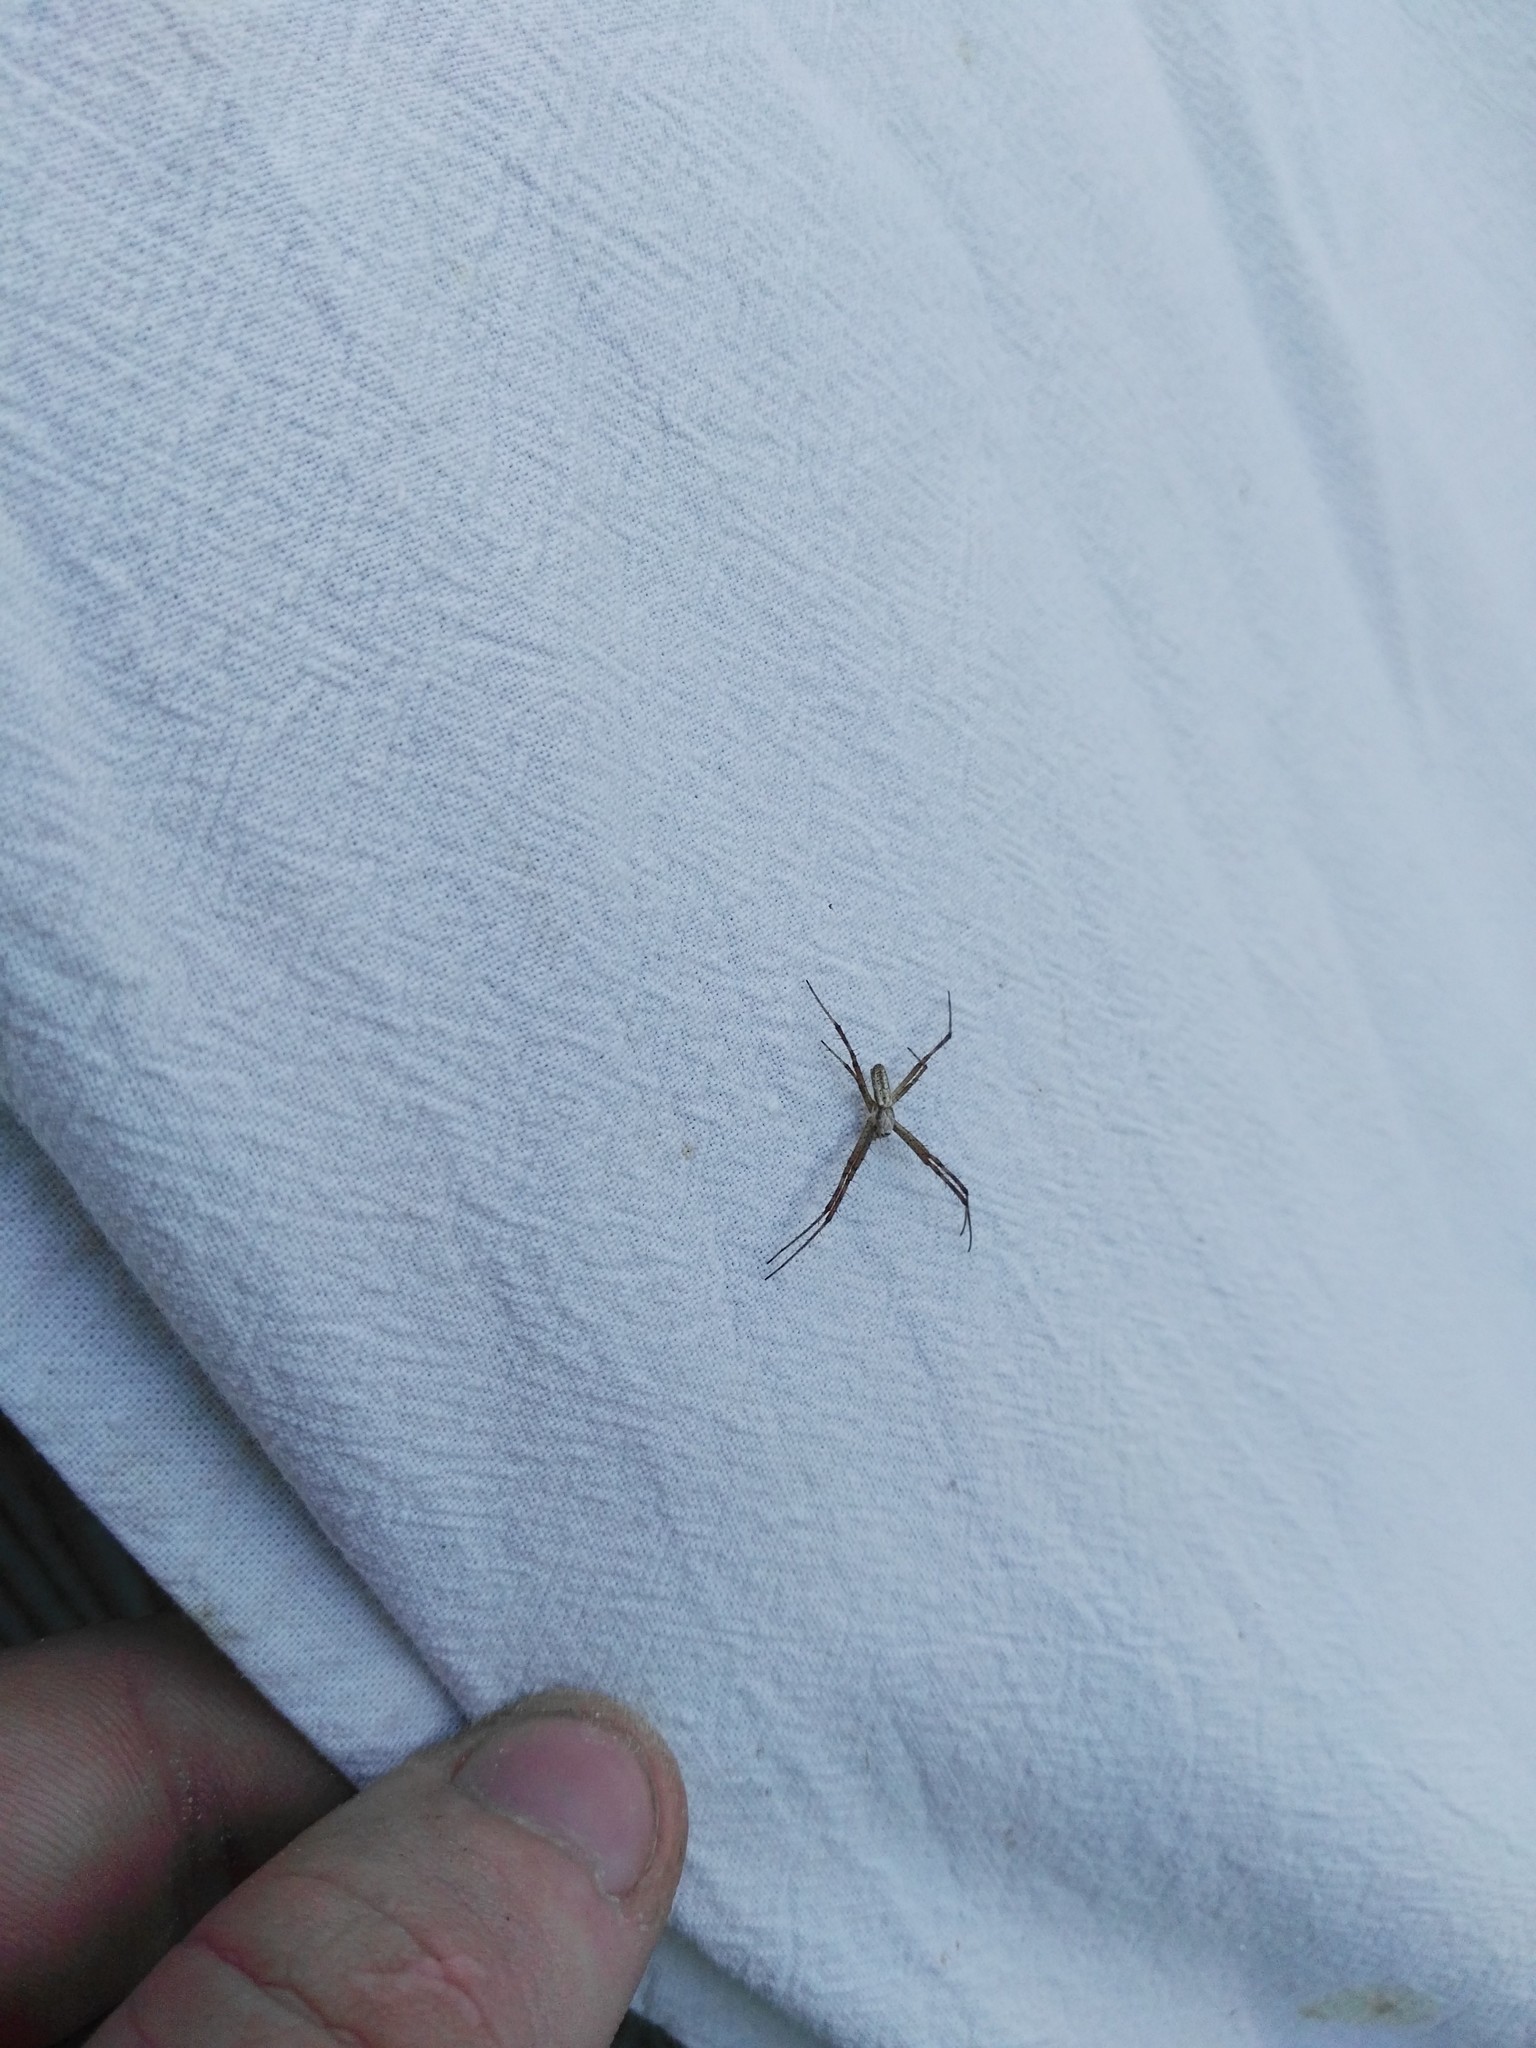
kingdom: Animalia
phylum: Arthropoda
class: Arachnida
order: Araneae
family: Araneidae
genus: Argiope
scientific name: Argiope bruennichi
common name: Wasp spider
